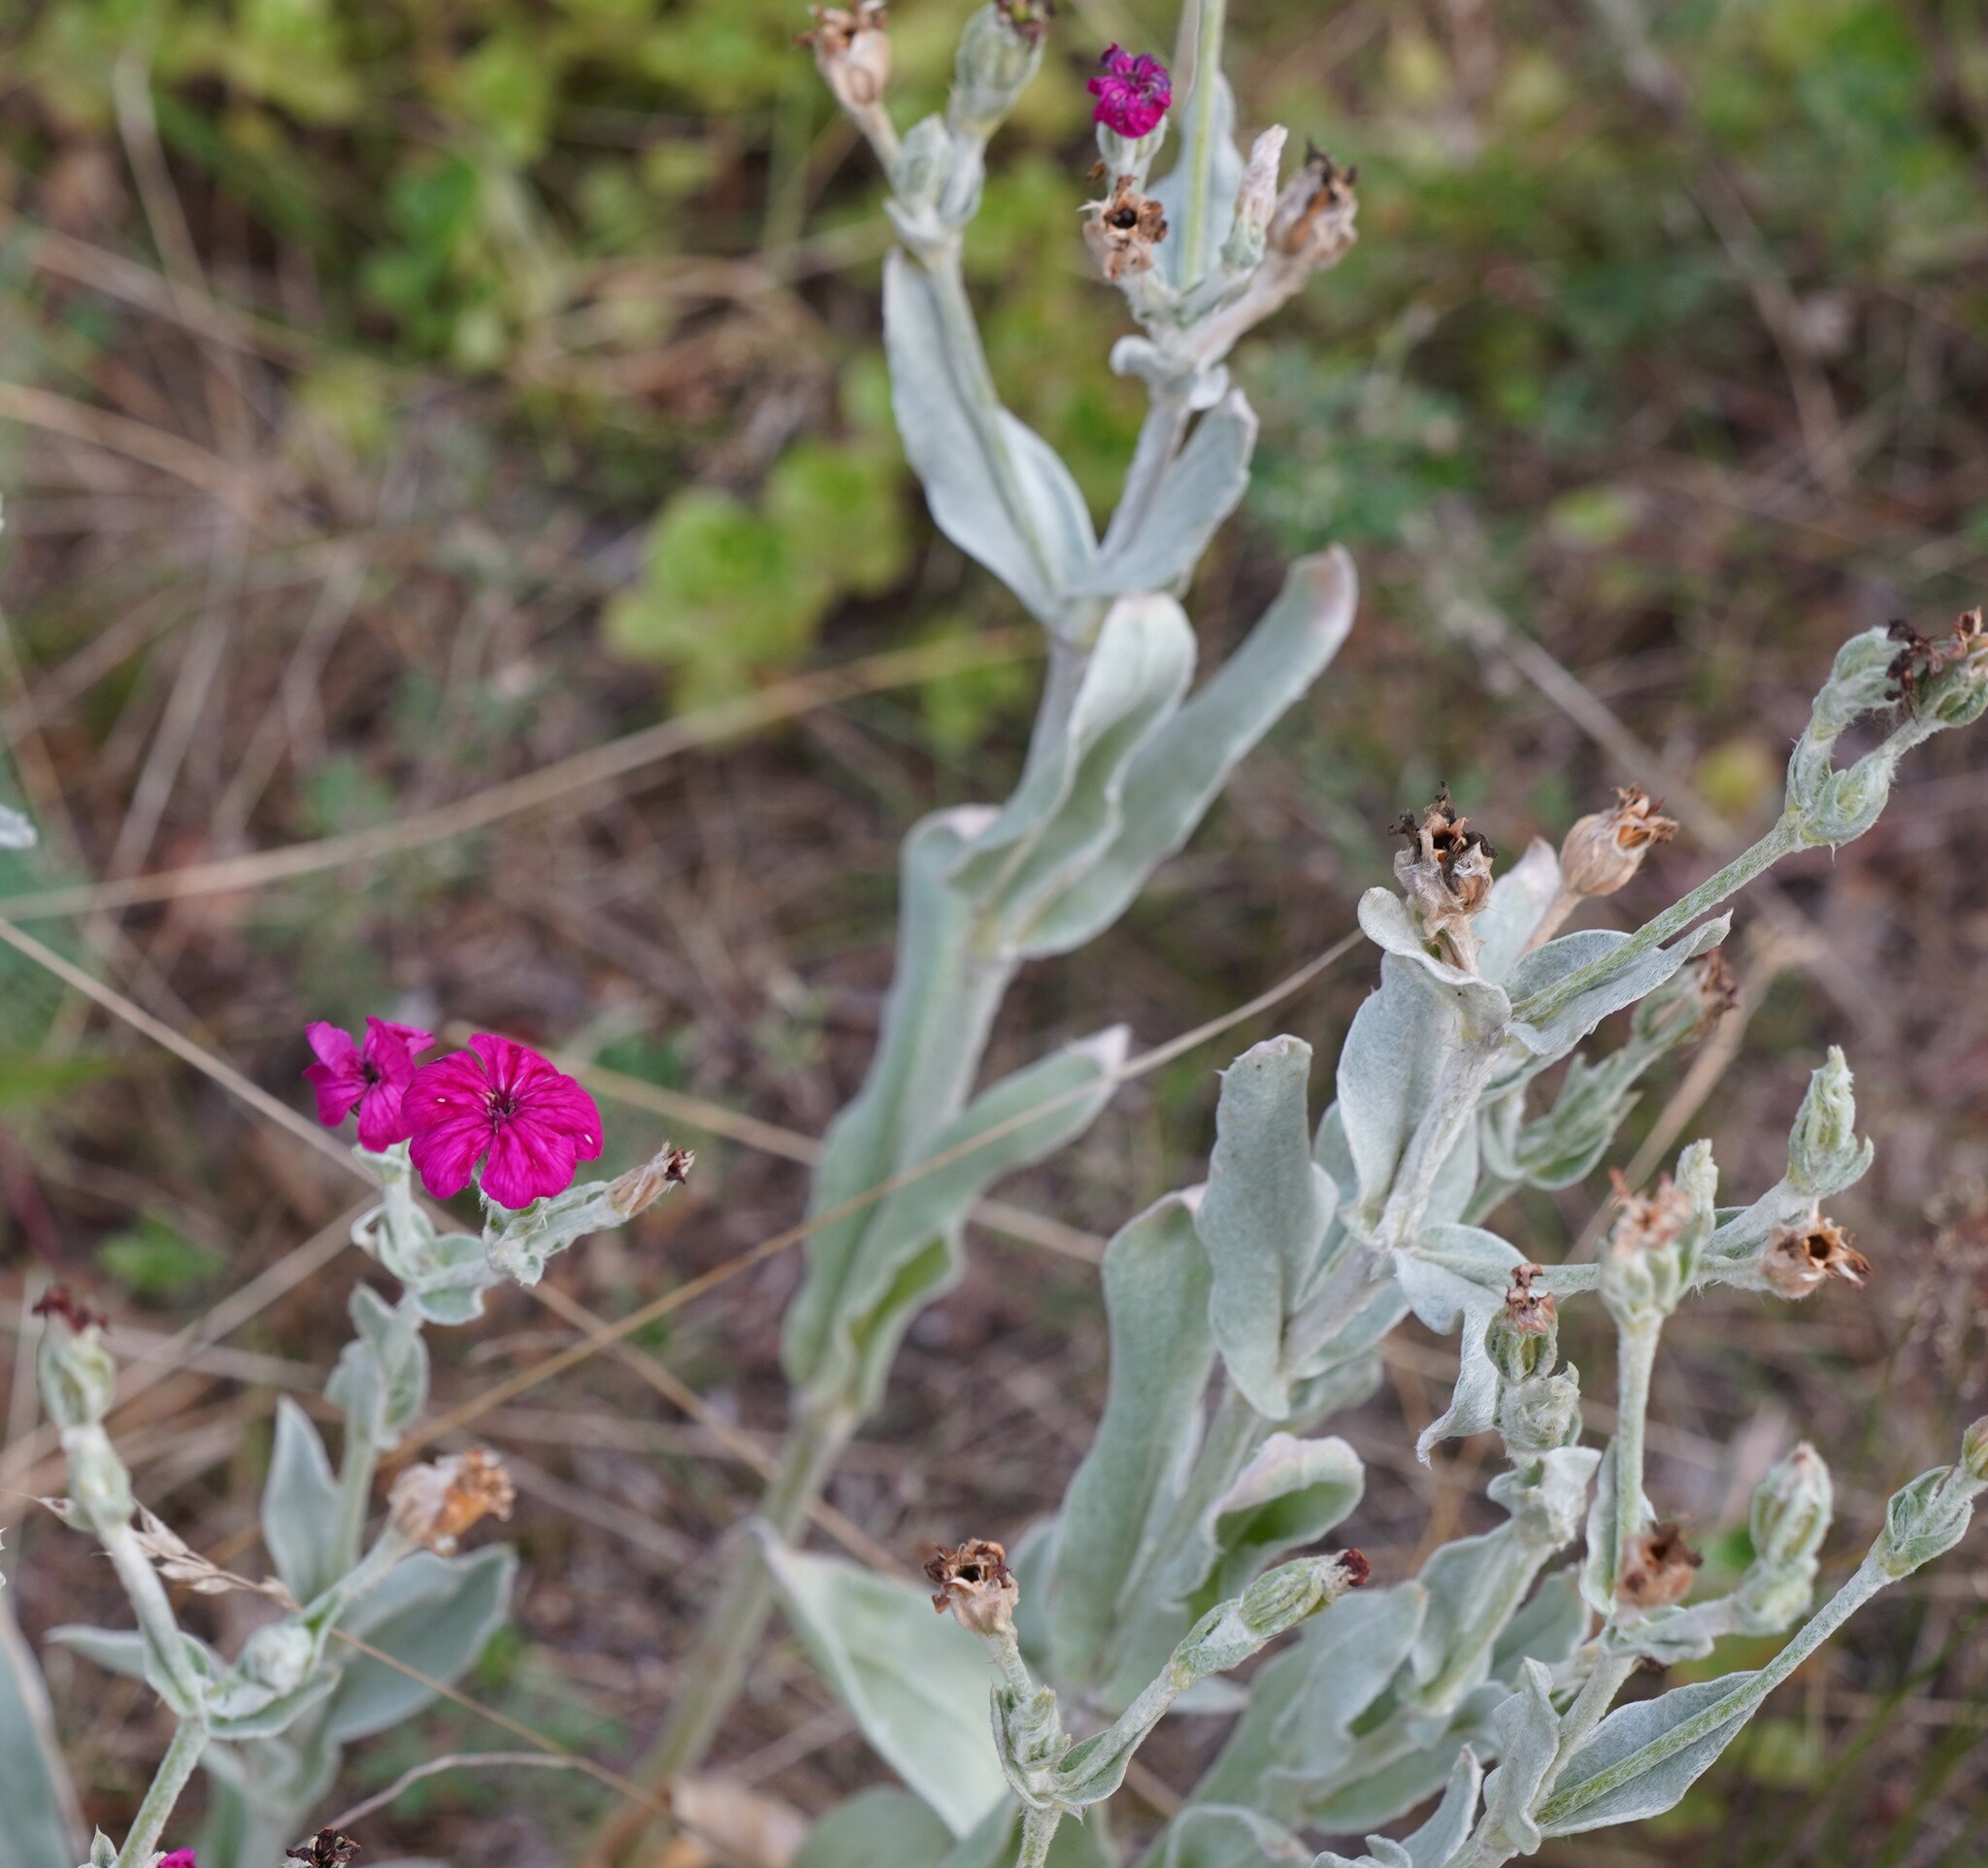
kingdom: Plantae
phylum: Tracheophyta
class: Magnoliopsida
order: Caryophyllales
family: Caryophyllaceae
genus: Silene
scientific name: Silene coronaria
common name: Rose campion
